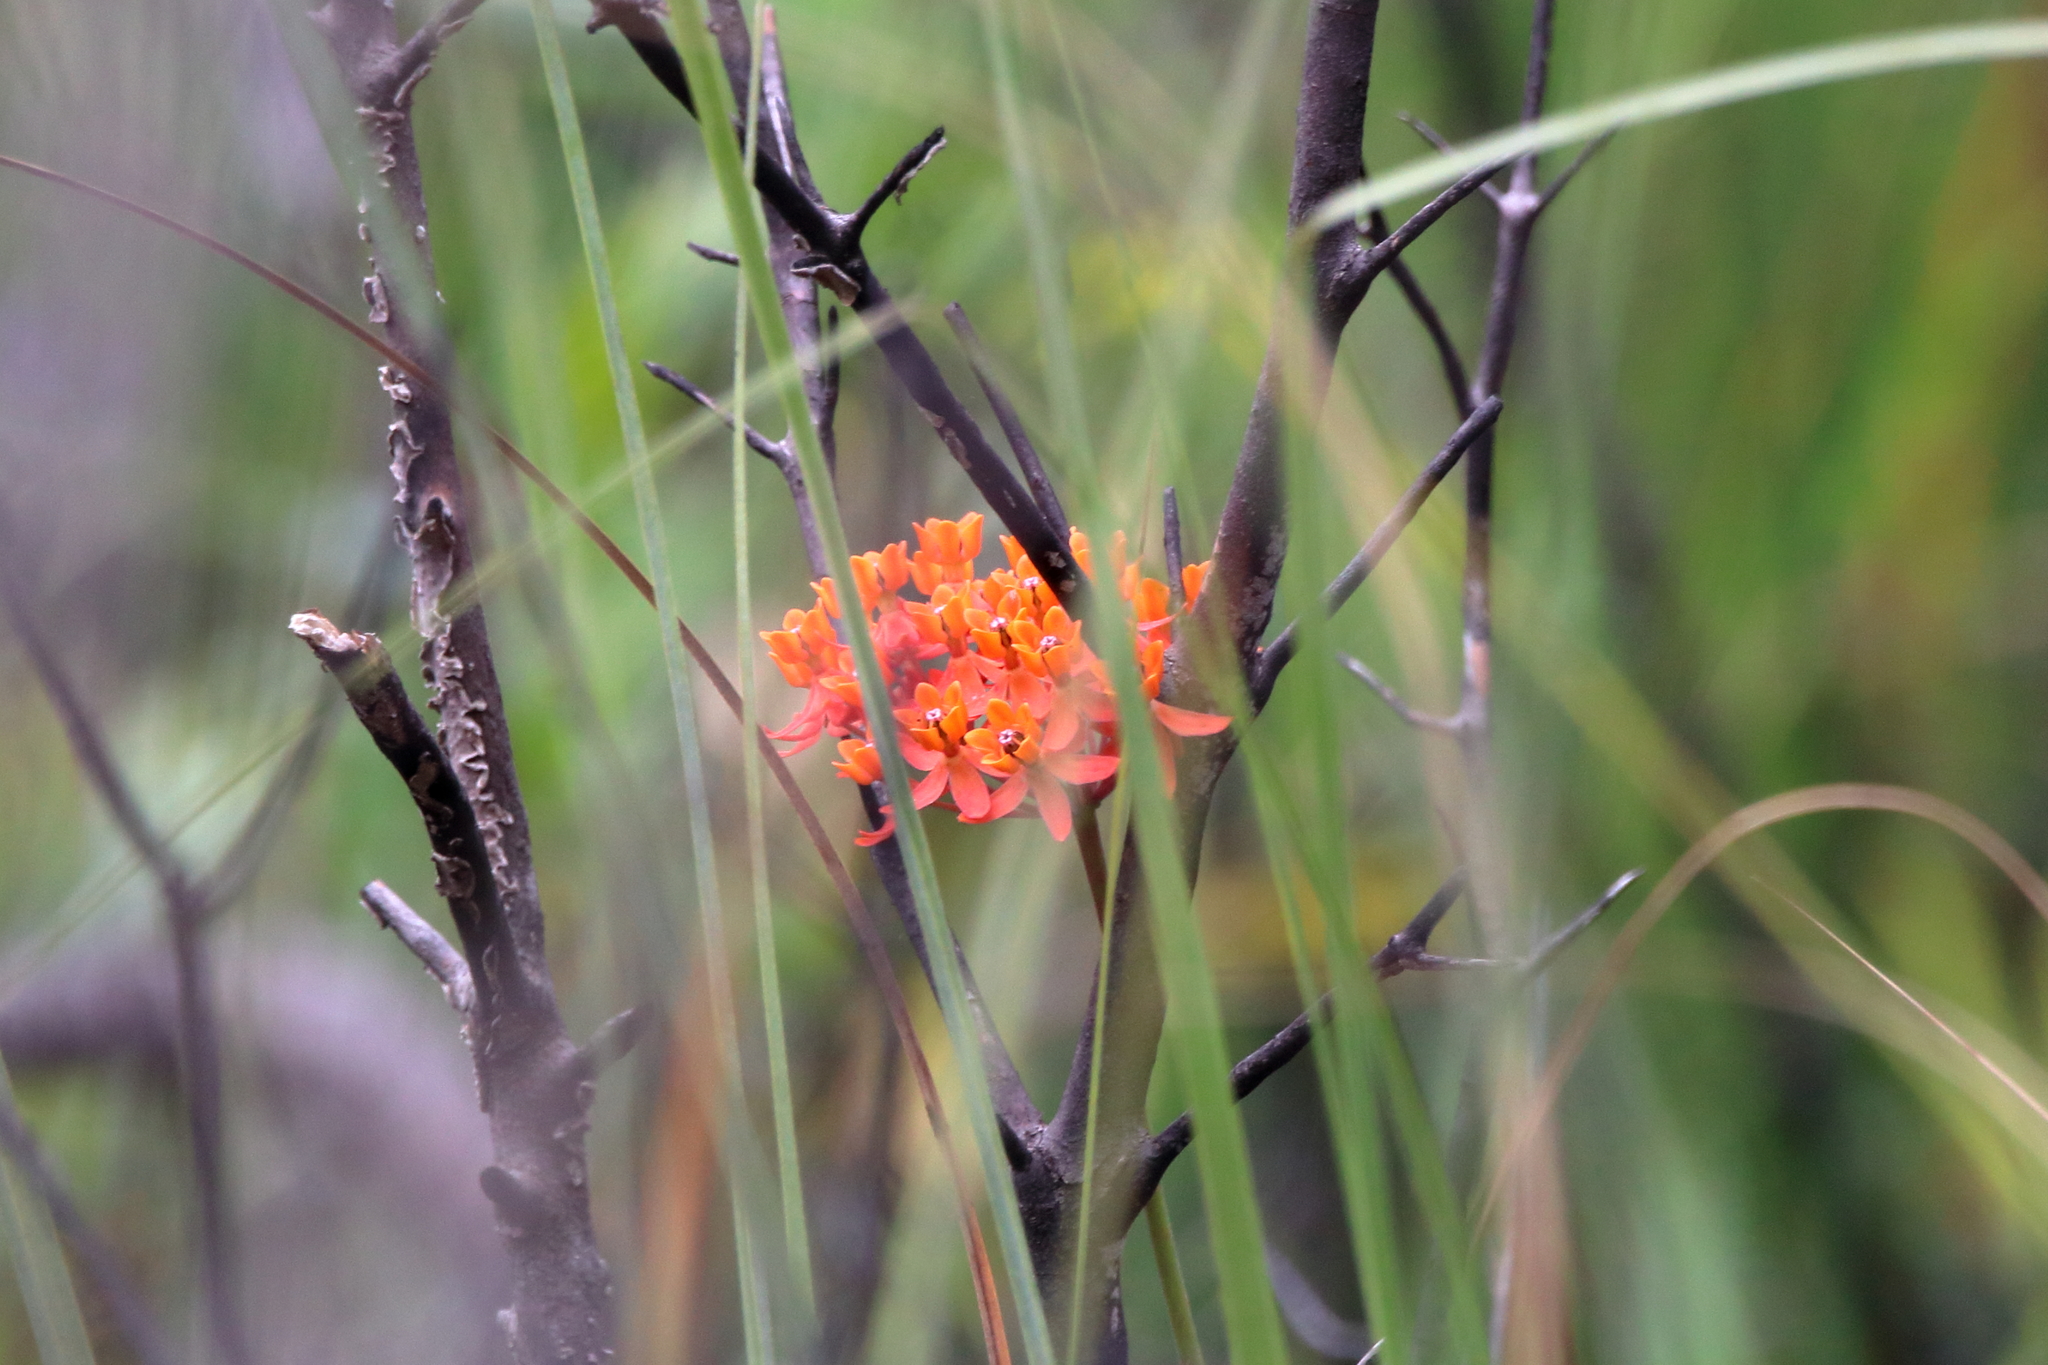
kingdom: Plantae
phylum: Tracheophyta
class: Magnoliopsida
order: Gentianales
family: Apocynaceae
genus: Asclepias
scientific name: Asclepias lanceolata
